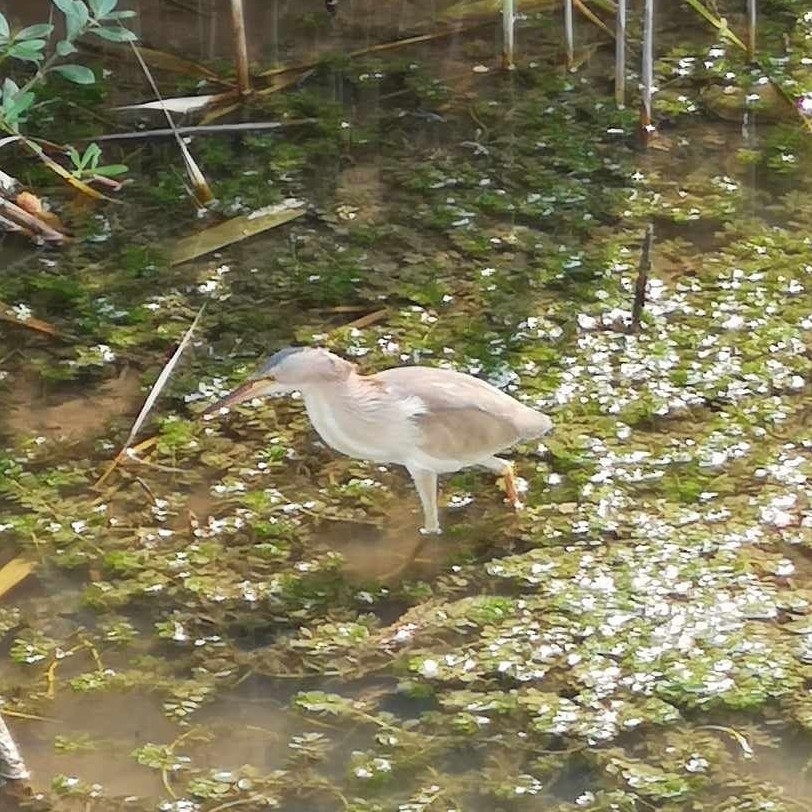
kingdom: Animalia
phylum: Chordata
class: Aves
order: Pelecaniformes
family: Ardeidae
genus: Ixobrychus
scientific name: Ixobrychus sinensis
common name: Yellow bittern
